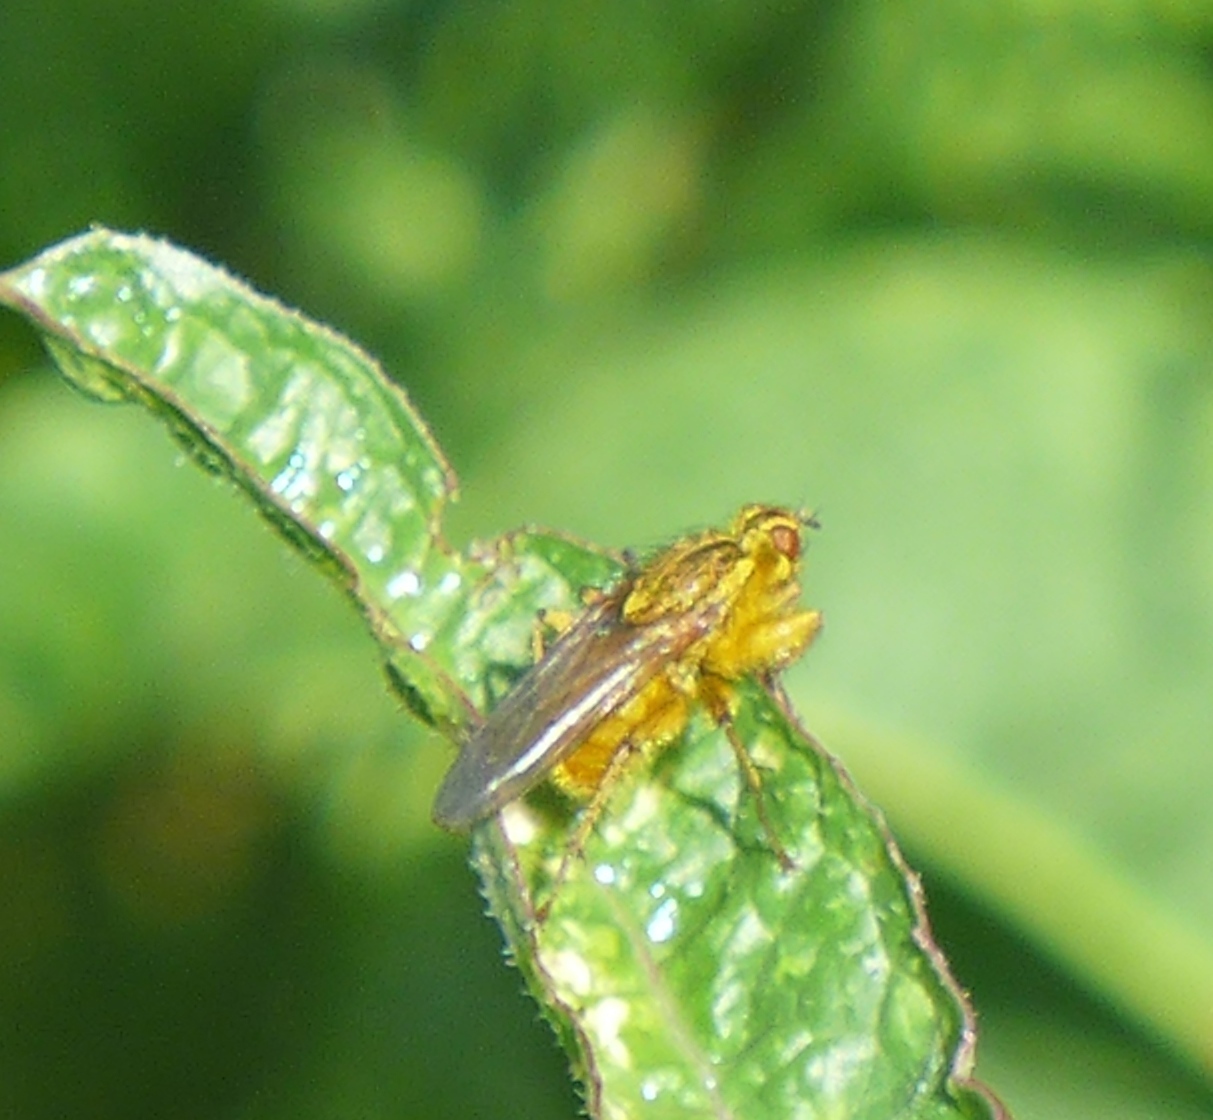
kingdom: Animalia
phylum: Arthropoda
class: Insecta
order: Diptera
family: Scathophagidae
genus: Scathophaga
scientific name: Scathophaga stercoraria
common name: Yellow dung fly
